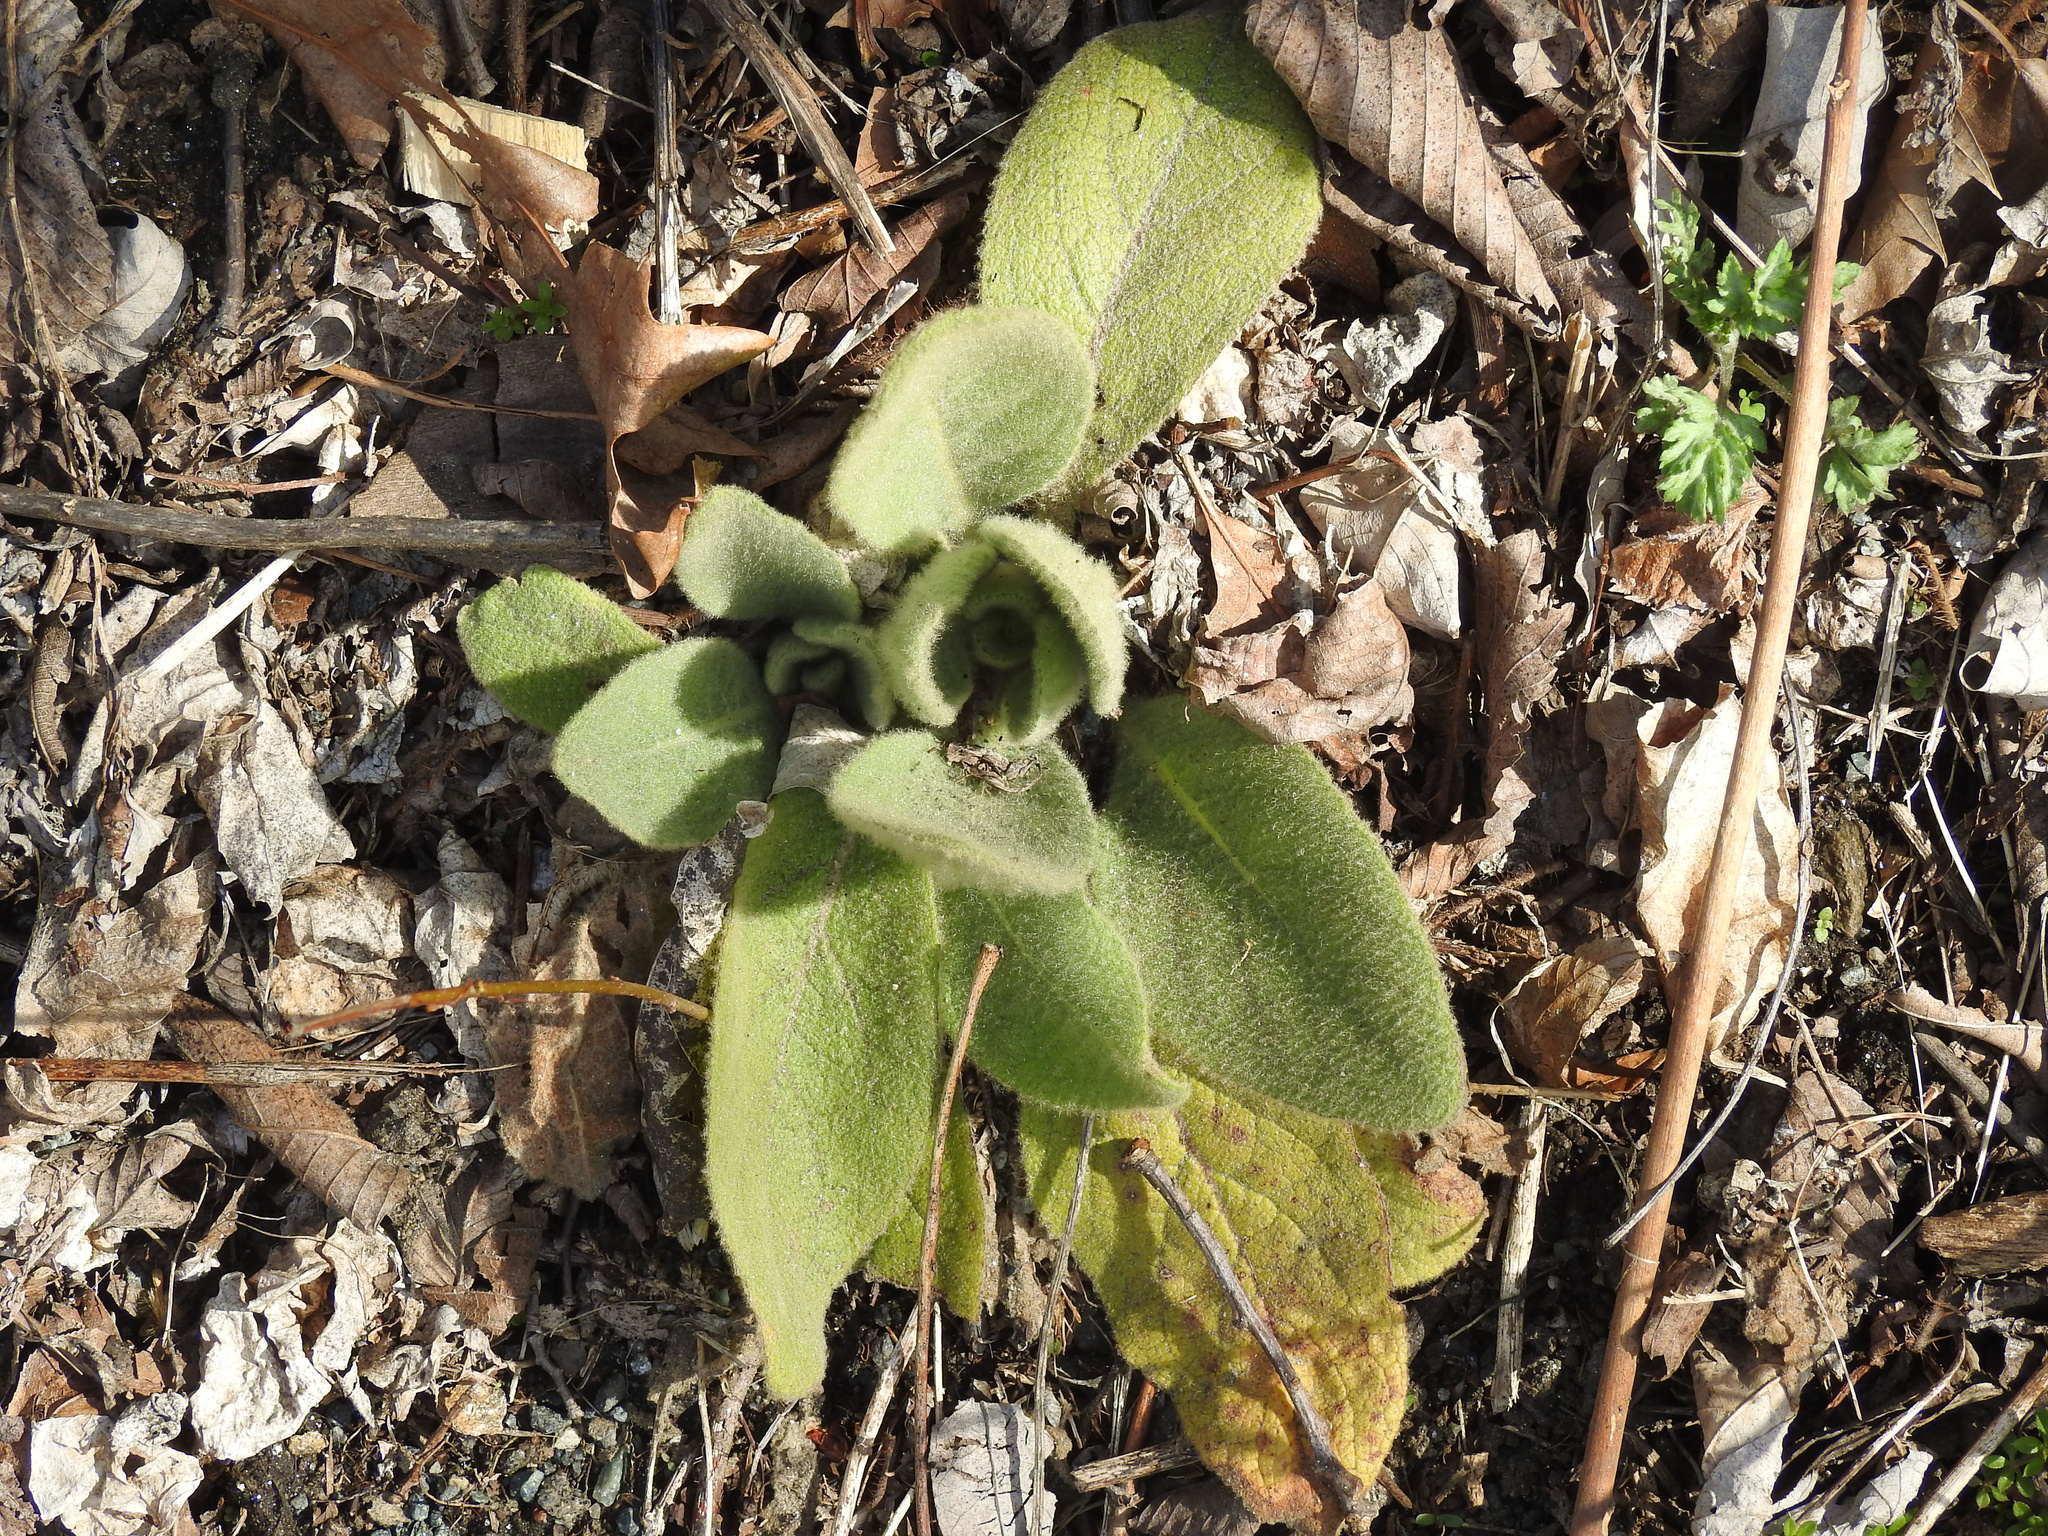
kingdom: Plantae
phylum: Tracheophyta
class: Magnoliopsida
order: Lamiales
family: Scrophulariaceae
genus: Verbascum
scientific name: Verbascum thapsus
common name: Common mullein
